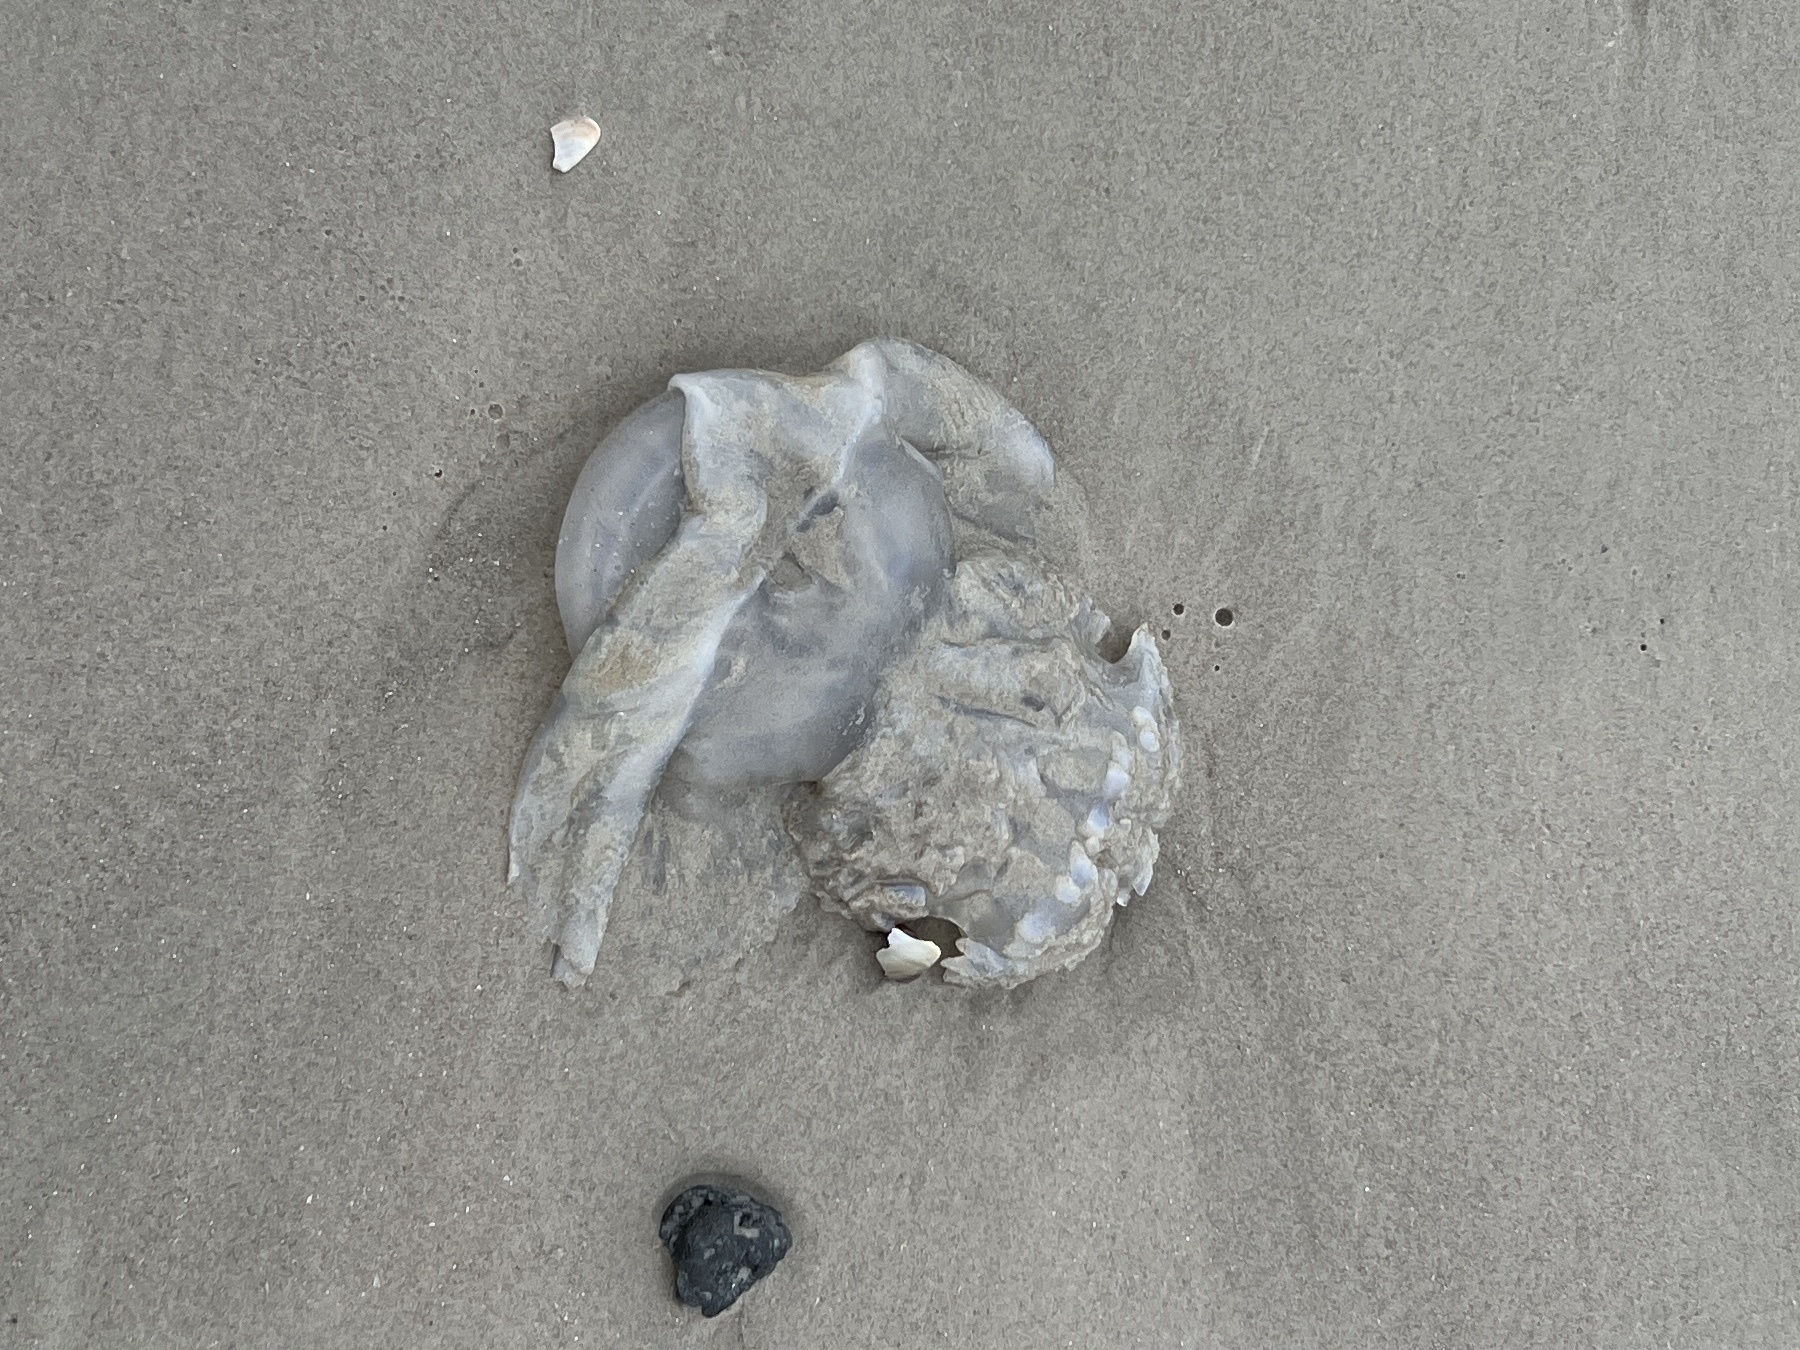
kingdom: Animalia
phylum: Cnidaria
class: Scyphozoa
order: Rhizostomeae
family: Stomolophidae
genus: Stomolophus
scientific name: Stomolophus meleagris
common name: Cabbagehead
